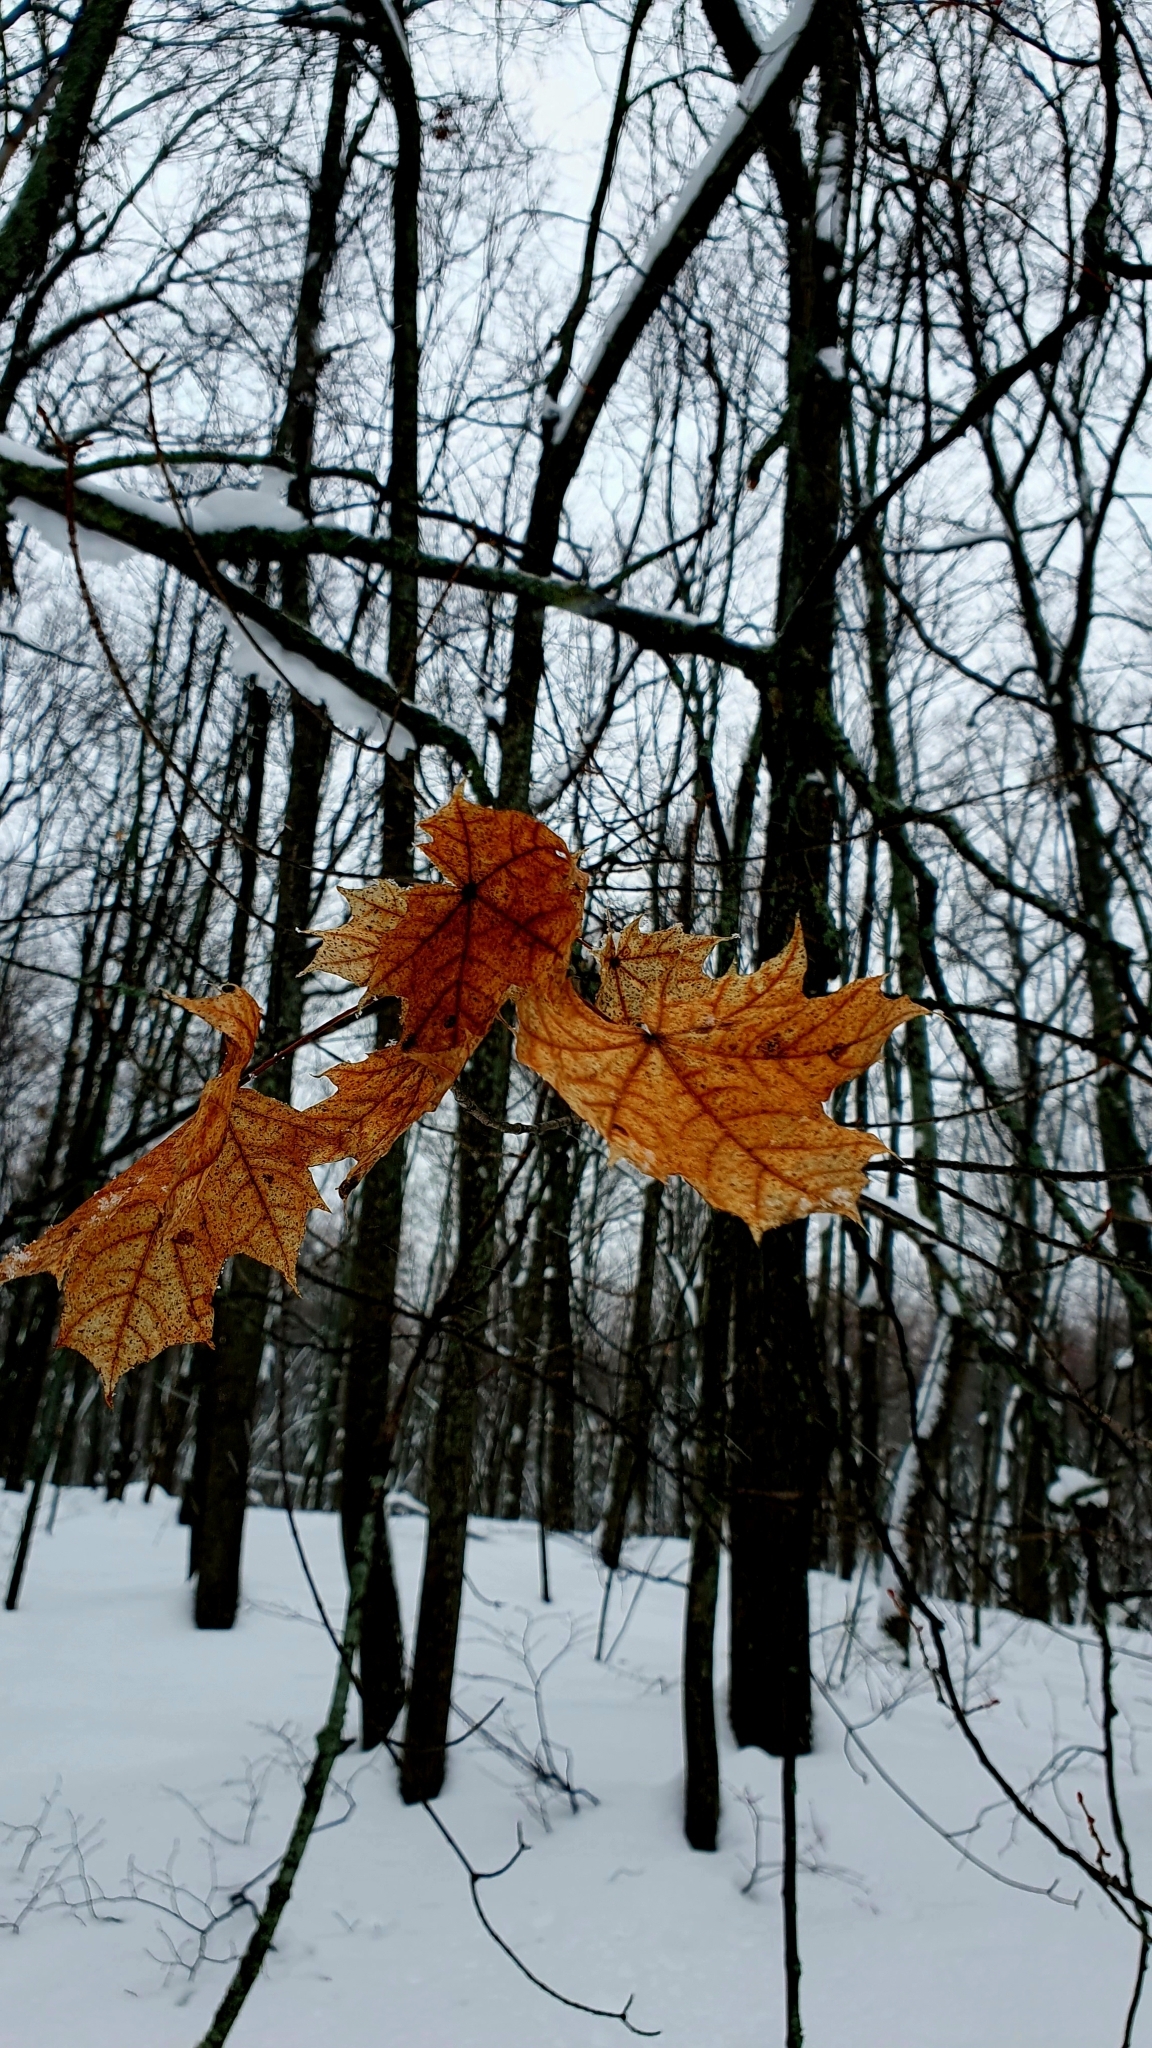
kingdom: Plantae
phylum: Tracheophyta
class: Magnoliopsida
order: Sapindales
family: Sapindaceae
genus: Acer
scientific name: Acer platanoides
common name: Norway maple
